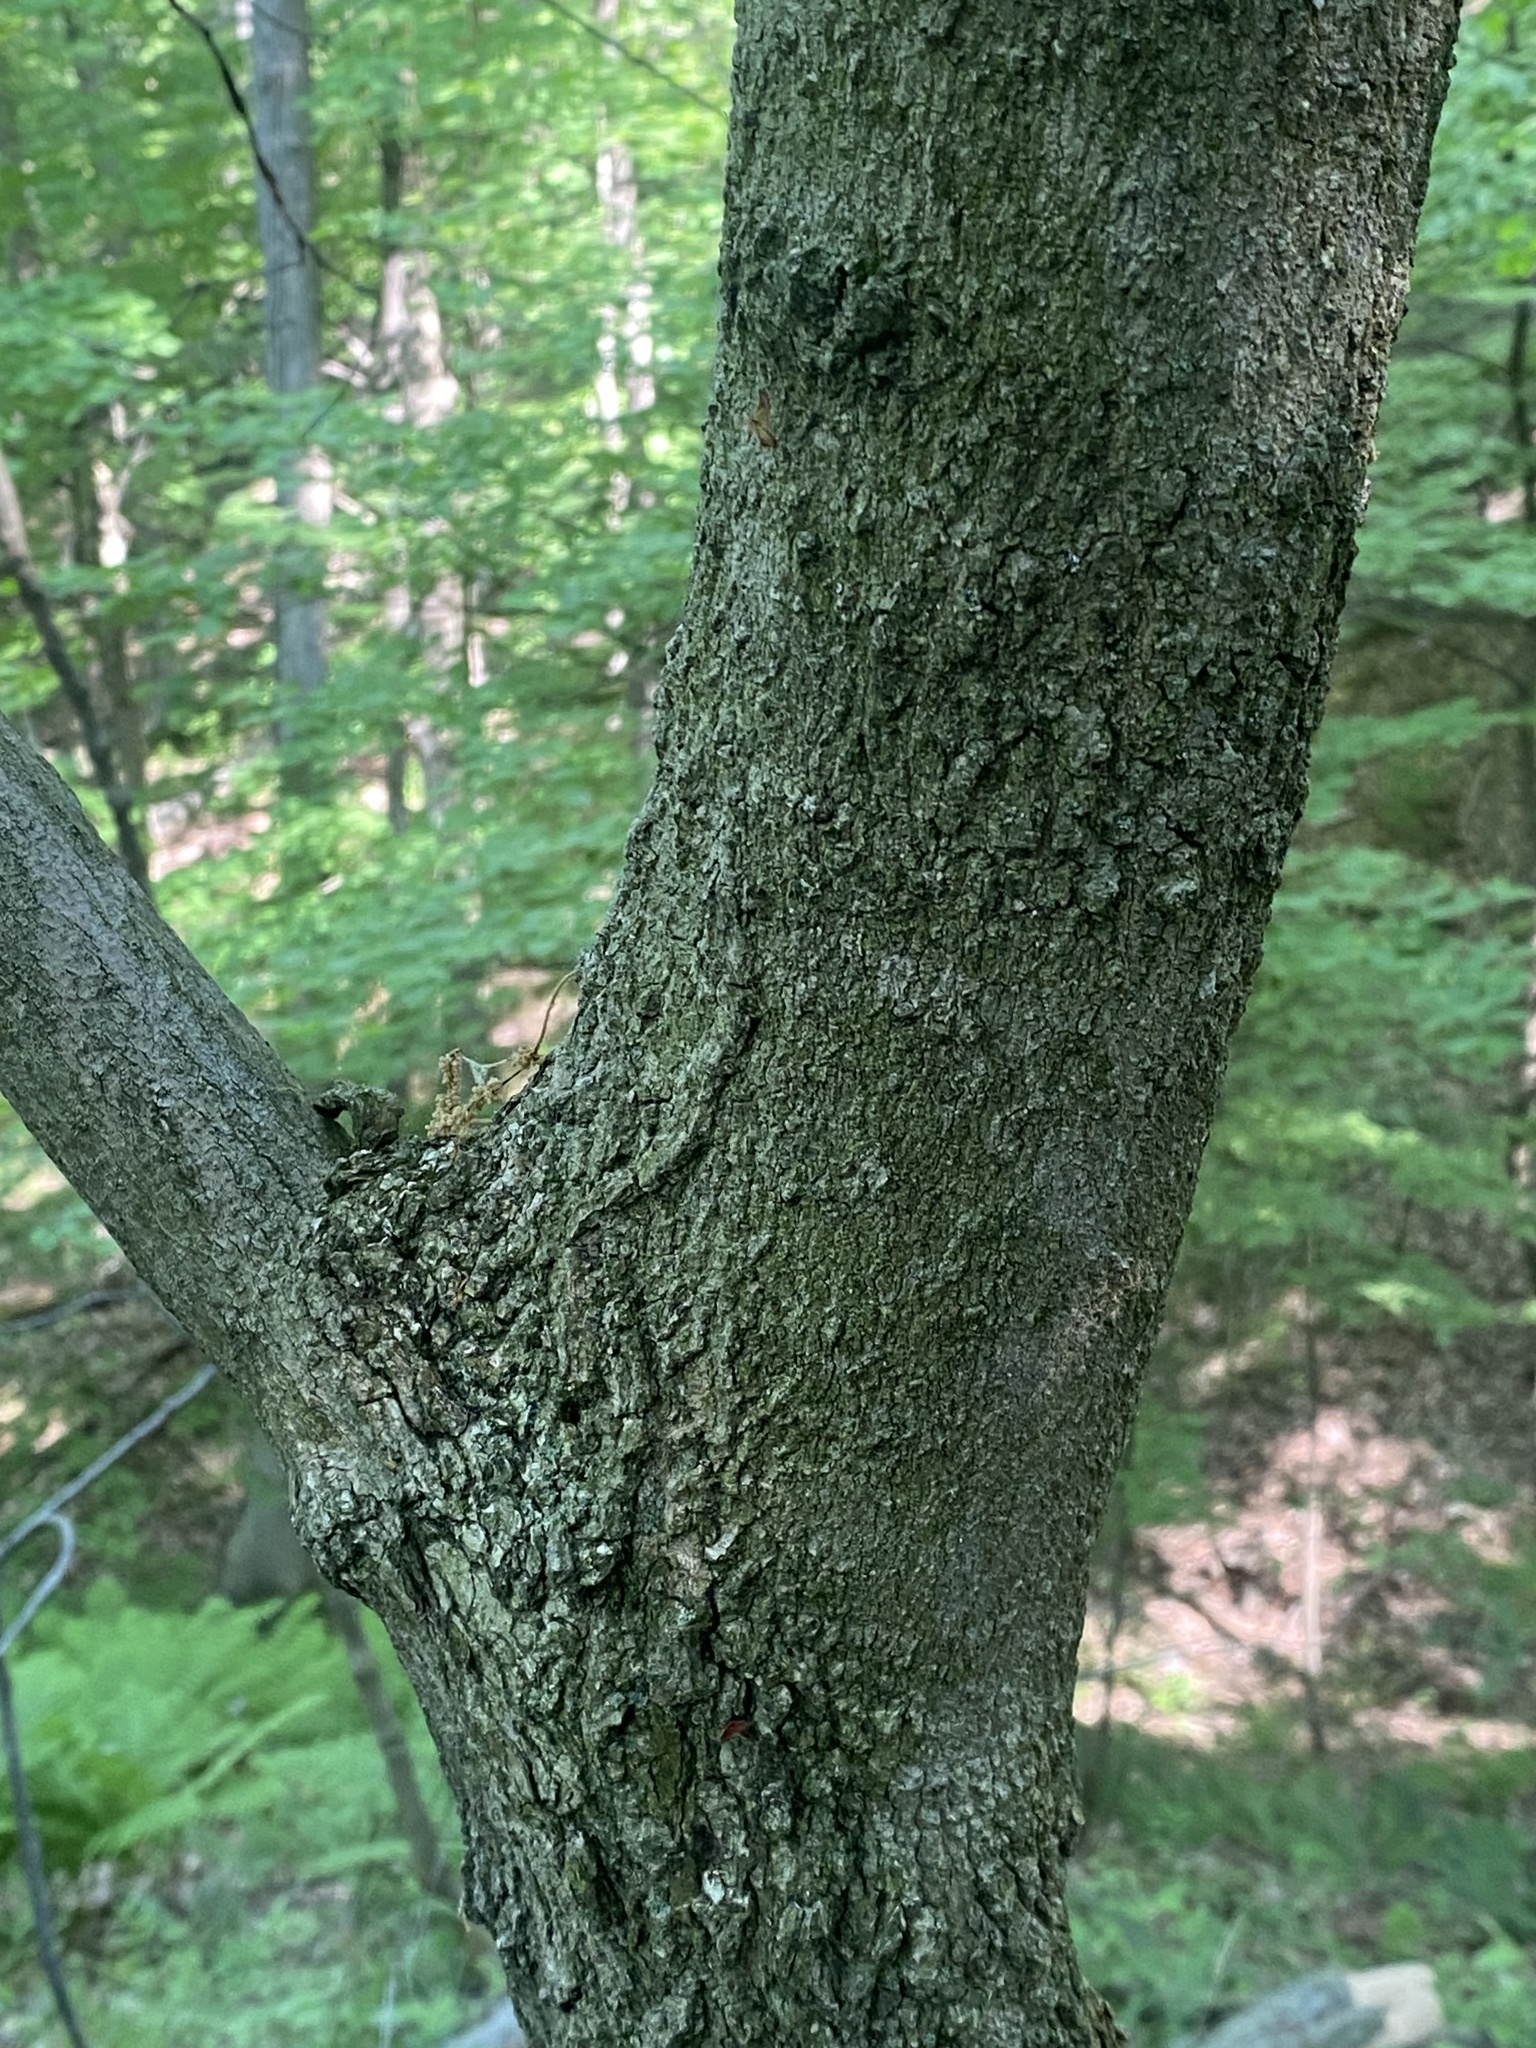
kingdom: Plantae
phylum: Tracheophyta
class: Magnoliopsida
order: Sapindales
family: Sapindaceae
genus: Acer
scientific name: Acer nigrum
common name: Black maple
